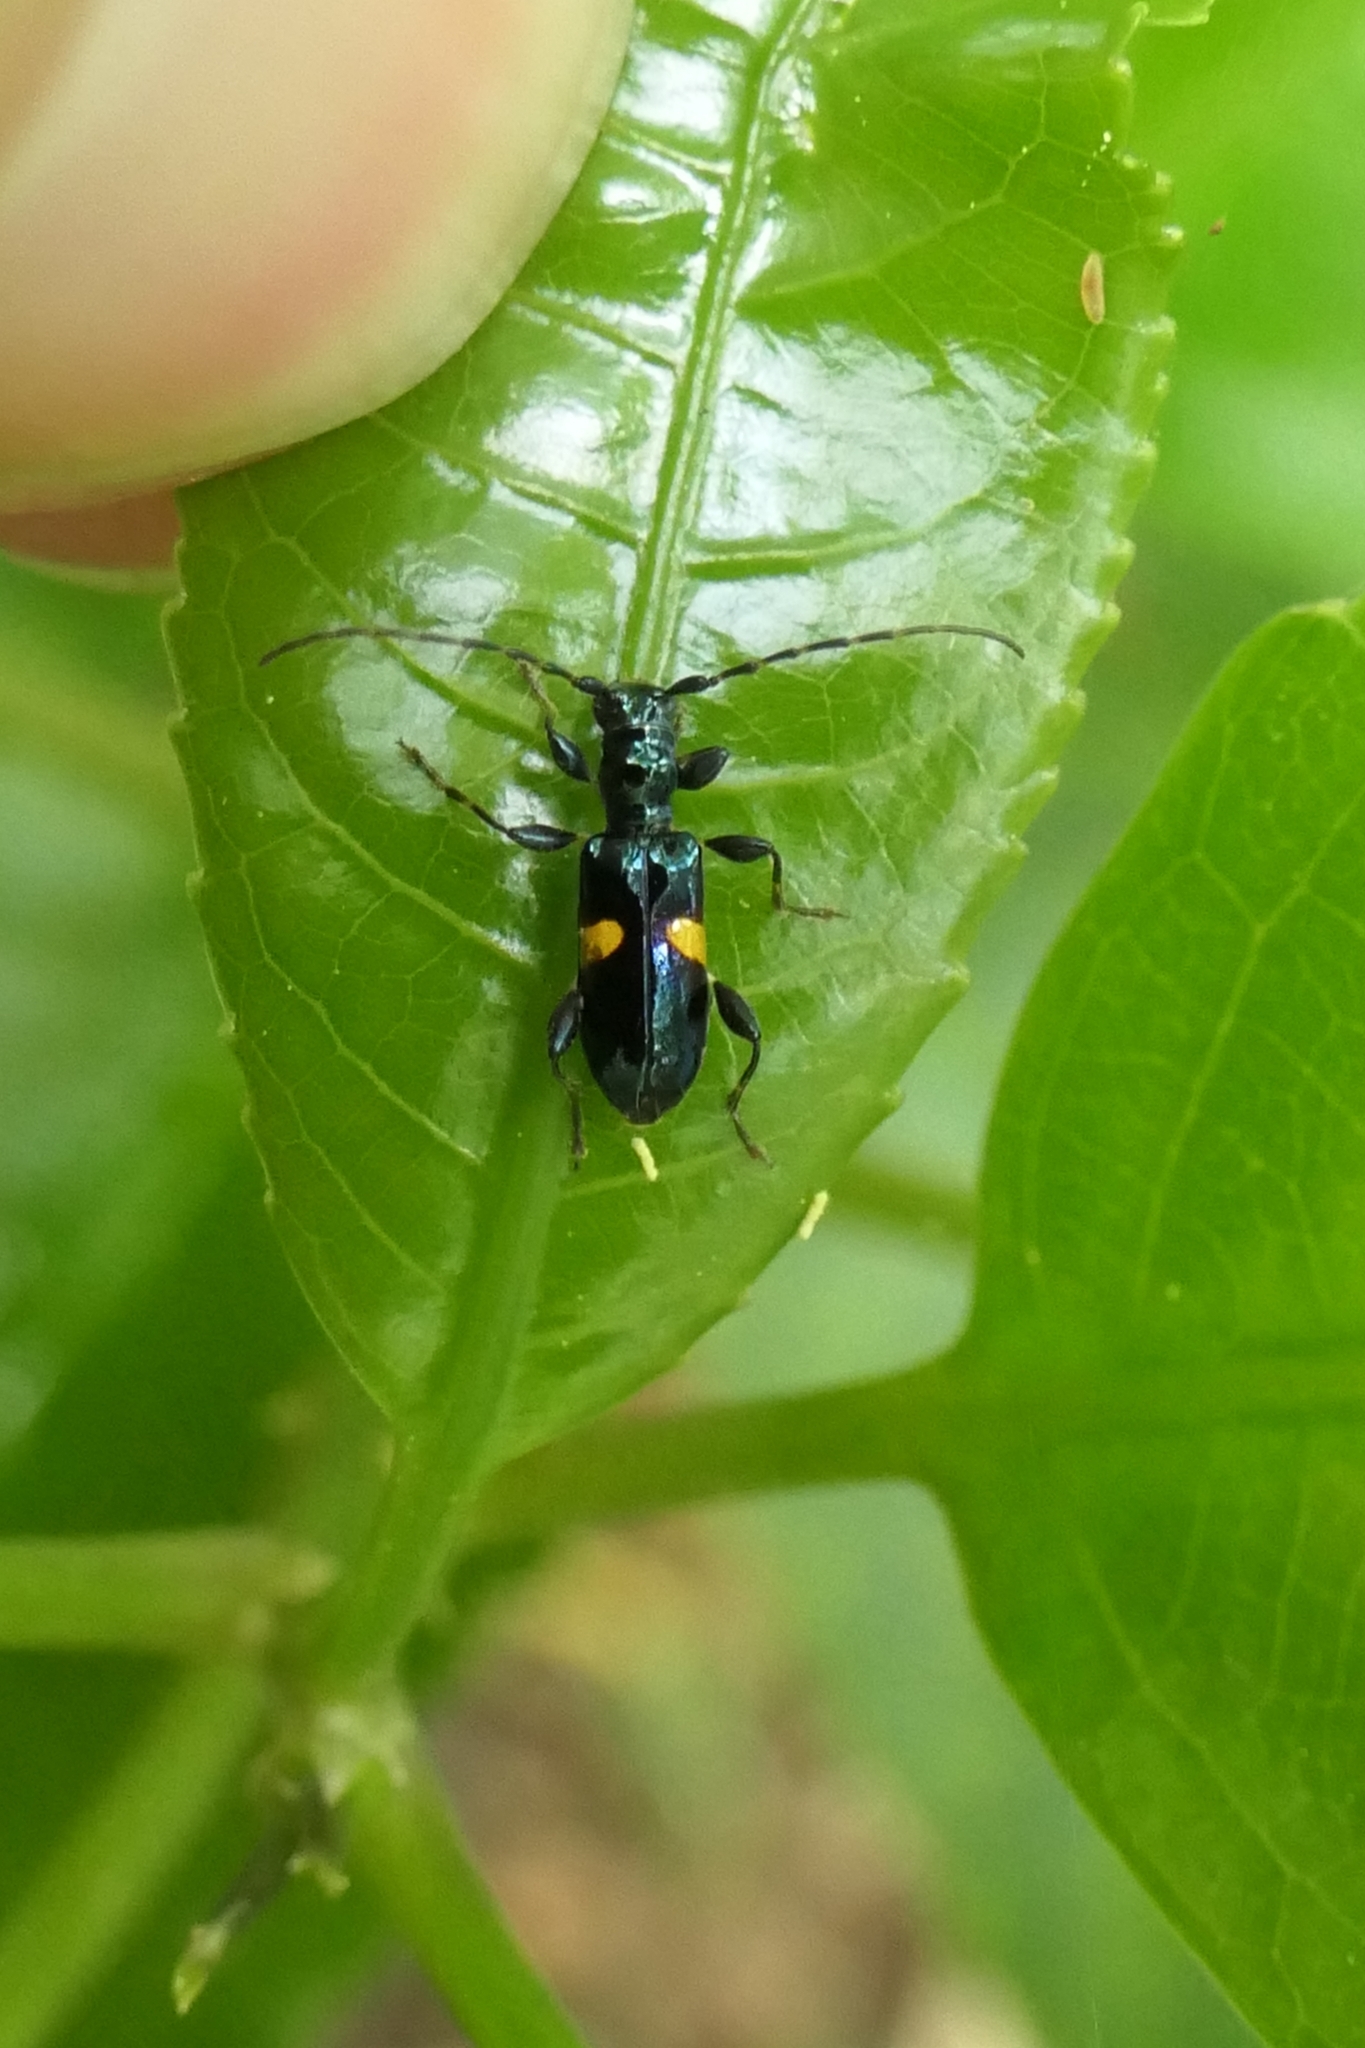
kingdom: Animalia
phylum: Arthropoda
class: Insecta
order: Coleoptera
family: Cerambycidae
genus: Zorion
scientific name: Zorion guttigerum
